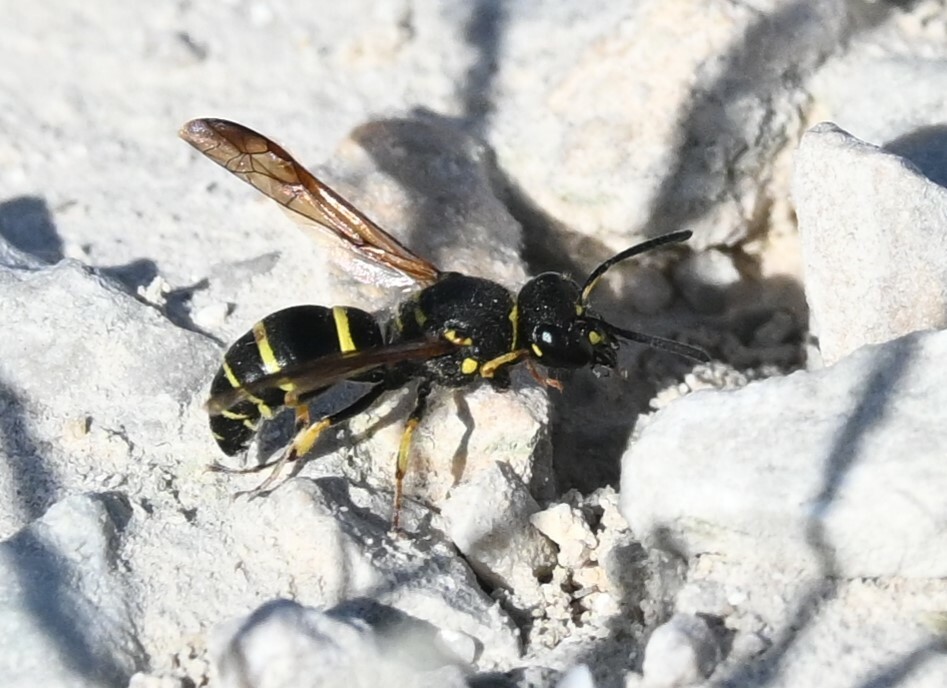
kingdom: Animalia
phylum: Arthropoda
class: Insecta
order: Hymenoptera
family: Vespidae
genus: Ancistrocerus
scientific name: Ancistrocerus
